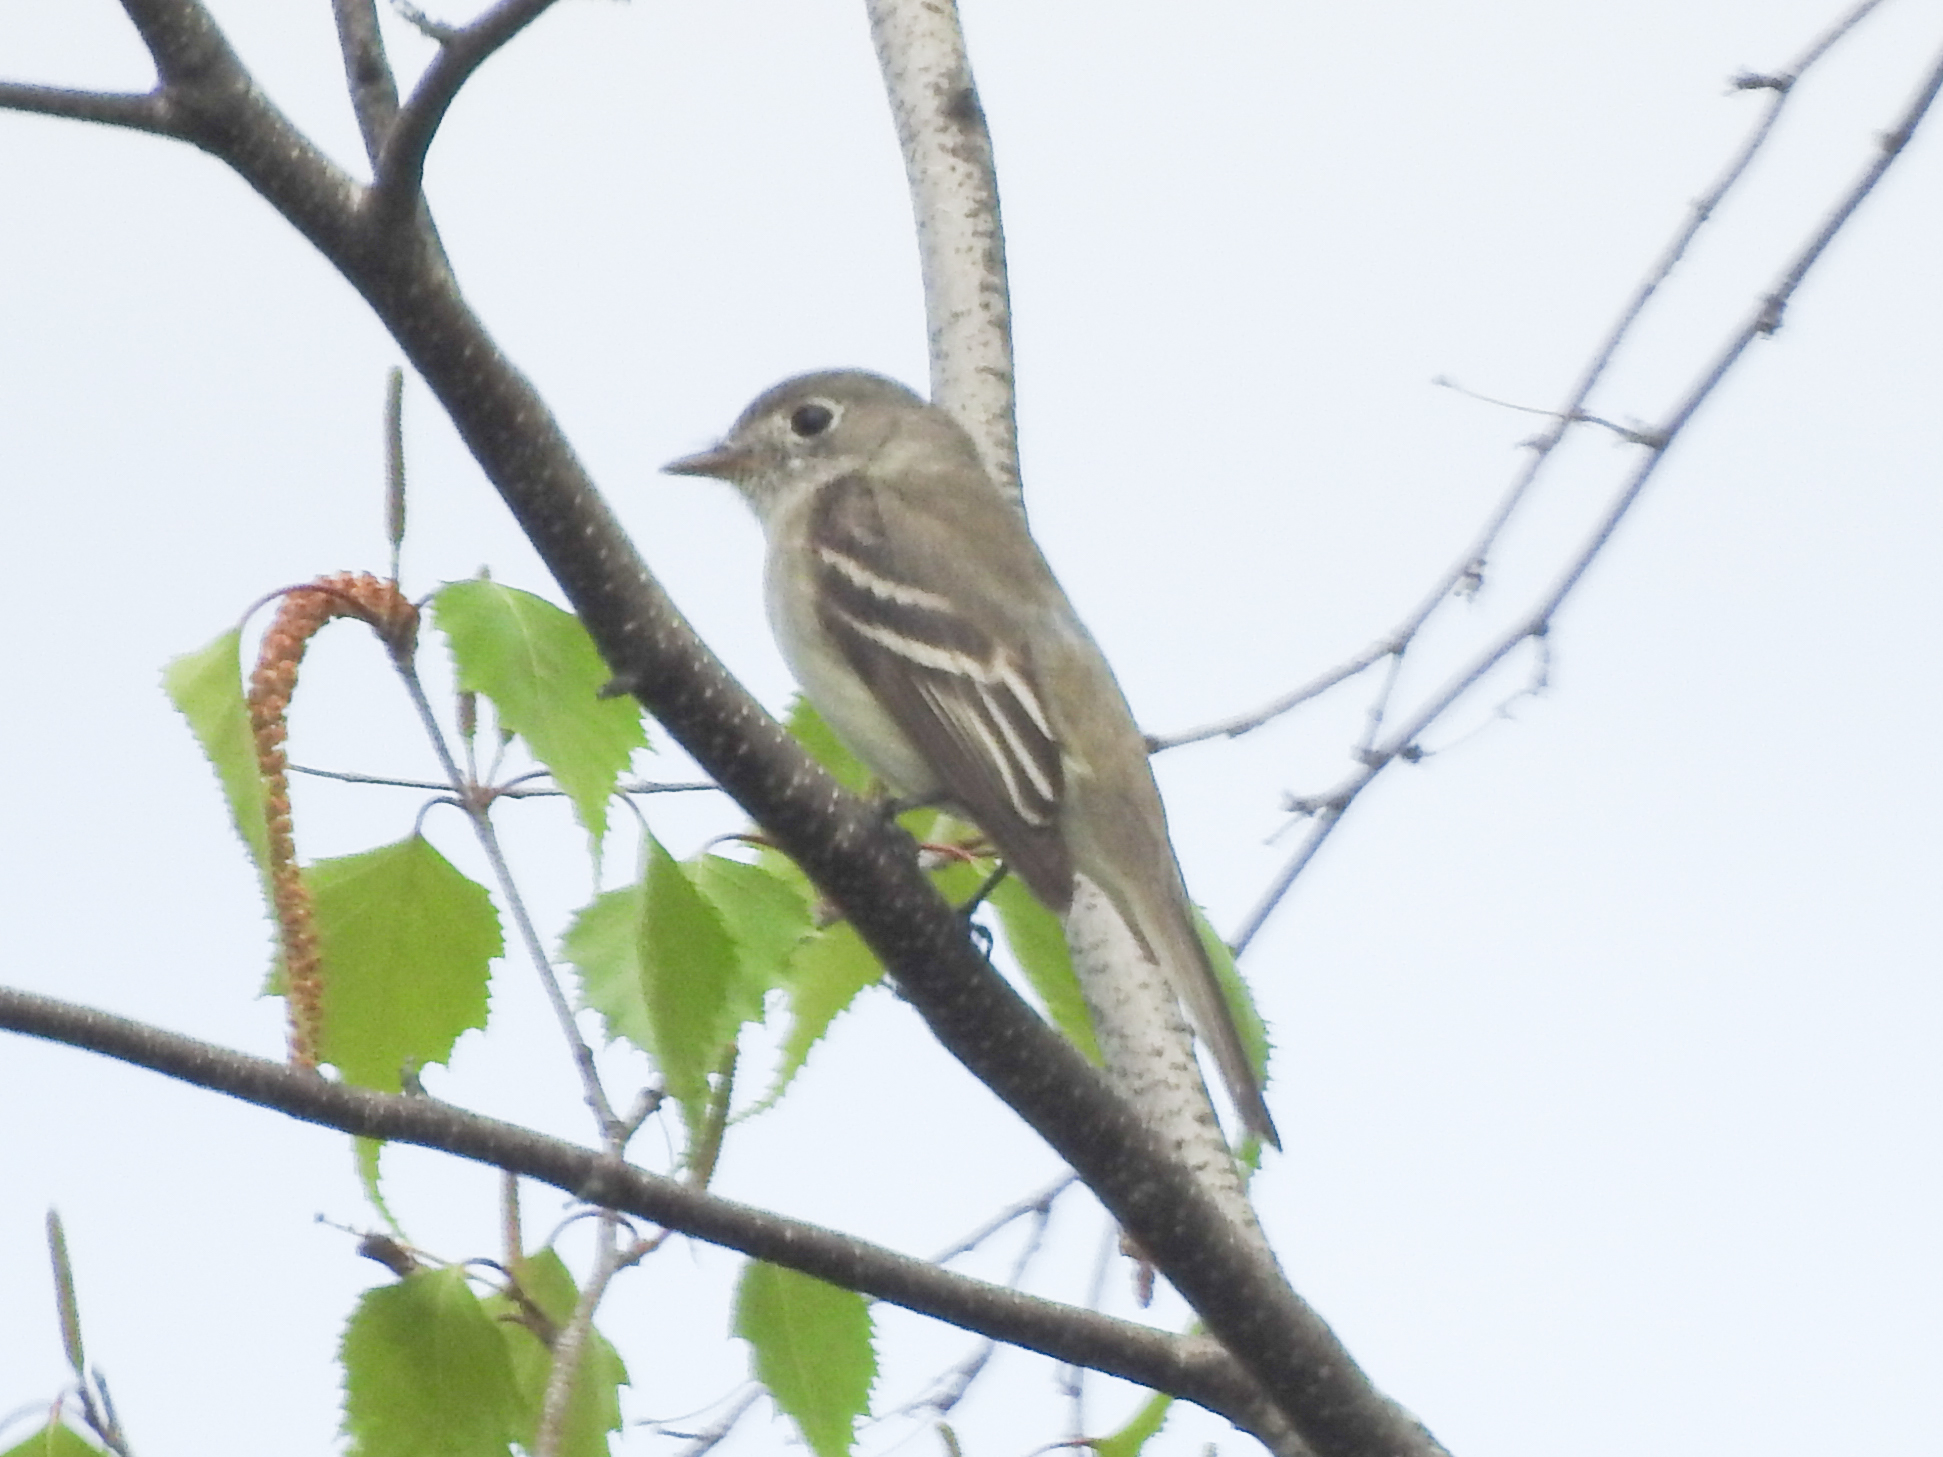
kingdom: Animalia
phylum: Chordata
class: Aves
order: Passeriformes
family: Tyrannidae
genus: Empidonax
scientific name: Empidonax minimus
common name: Least flycatcher
